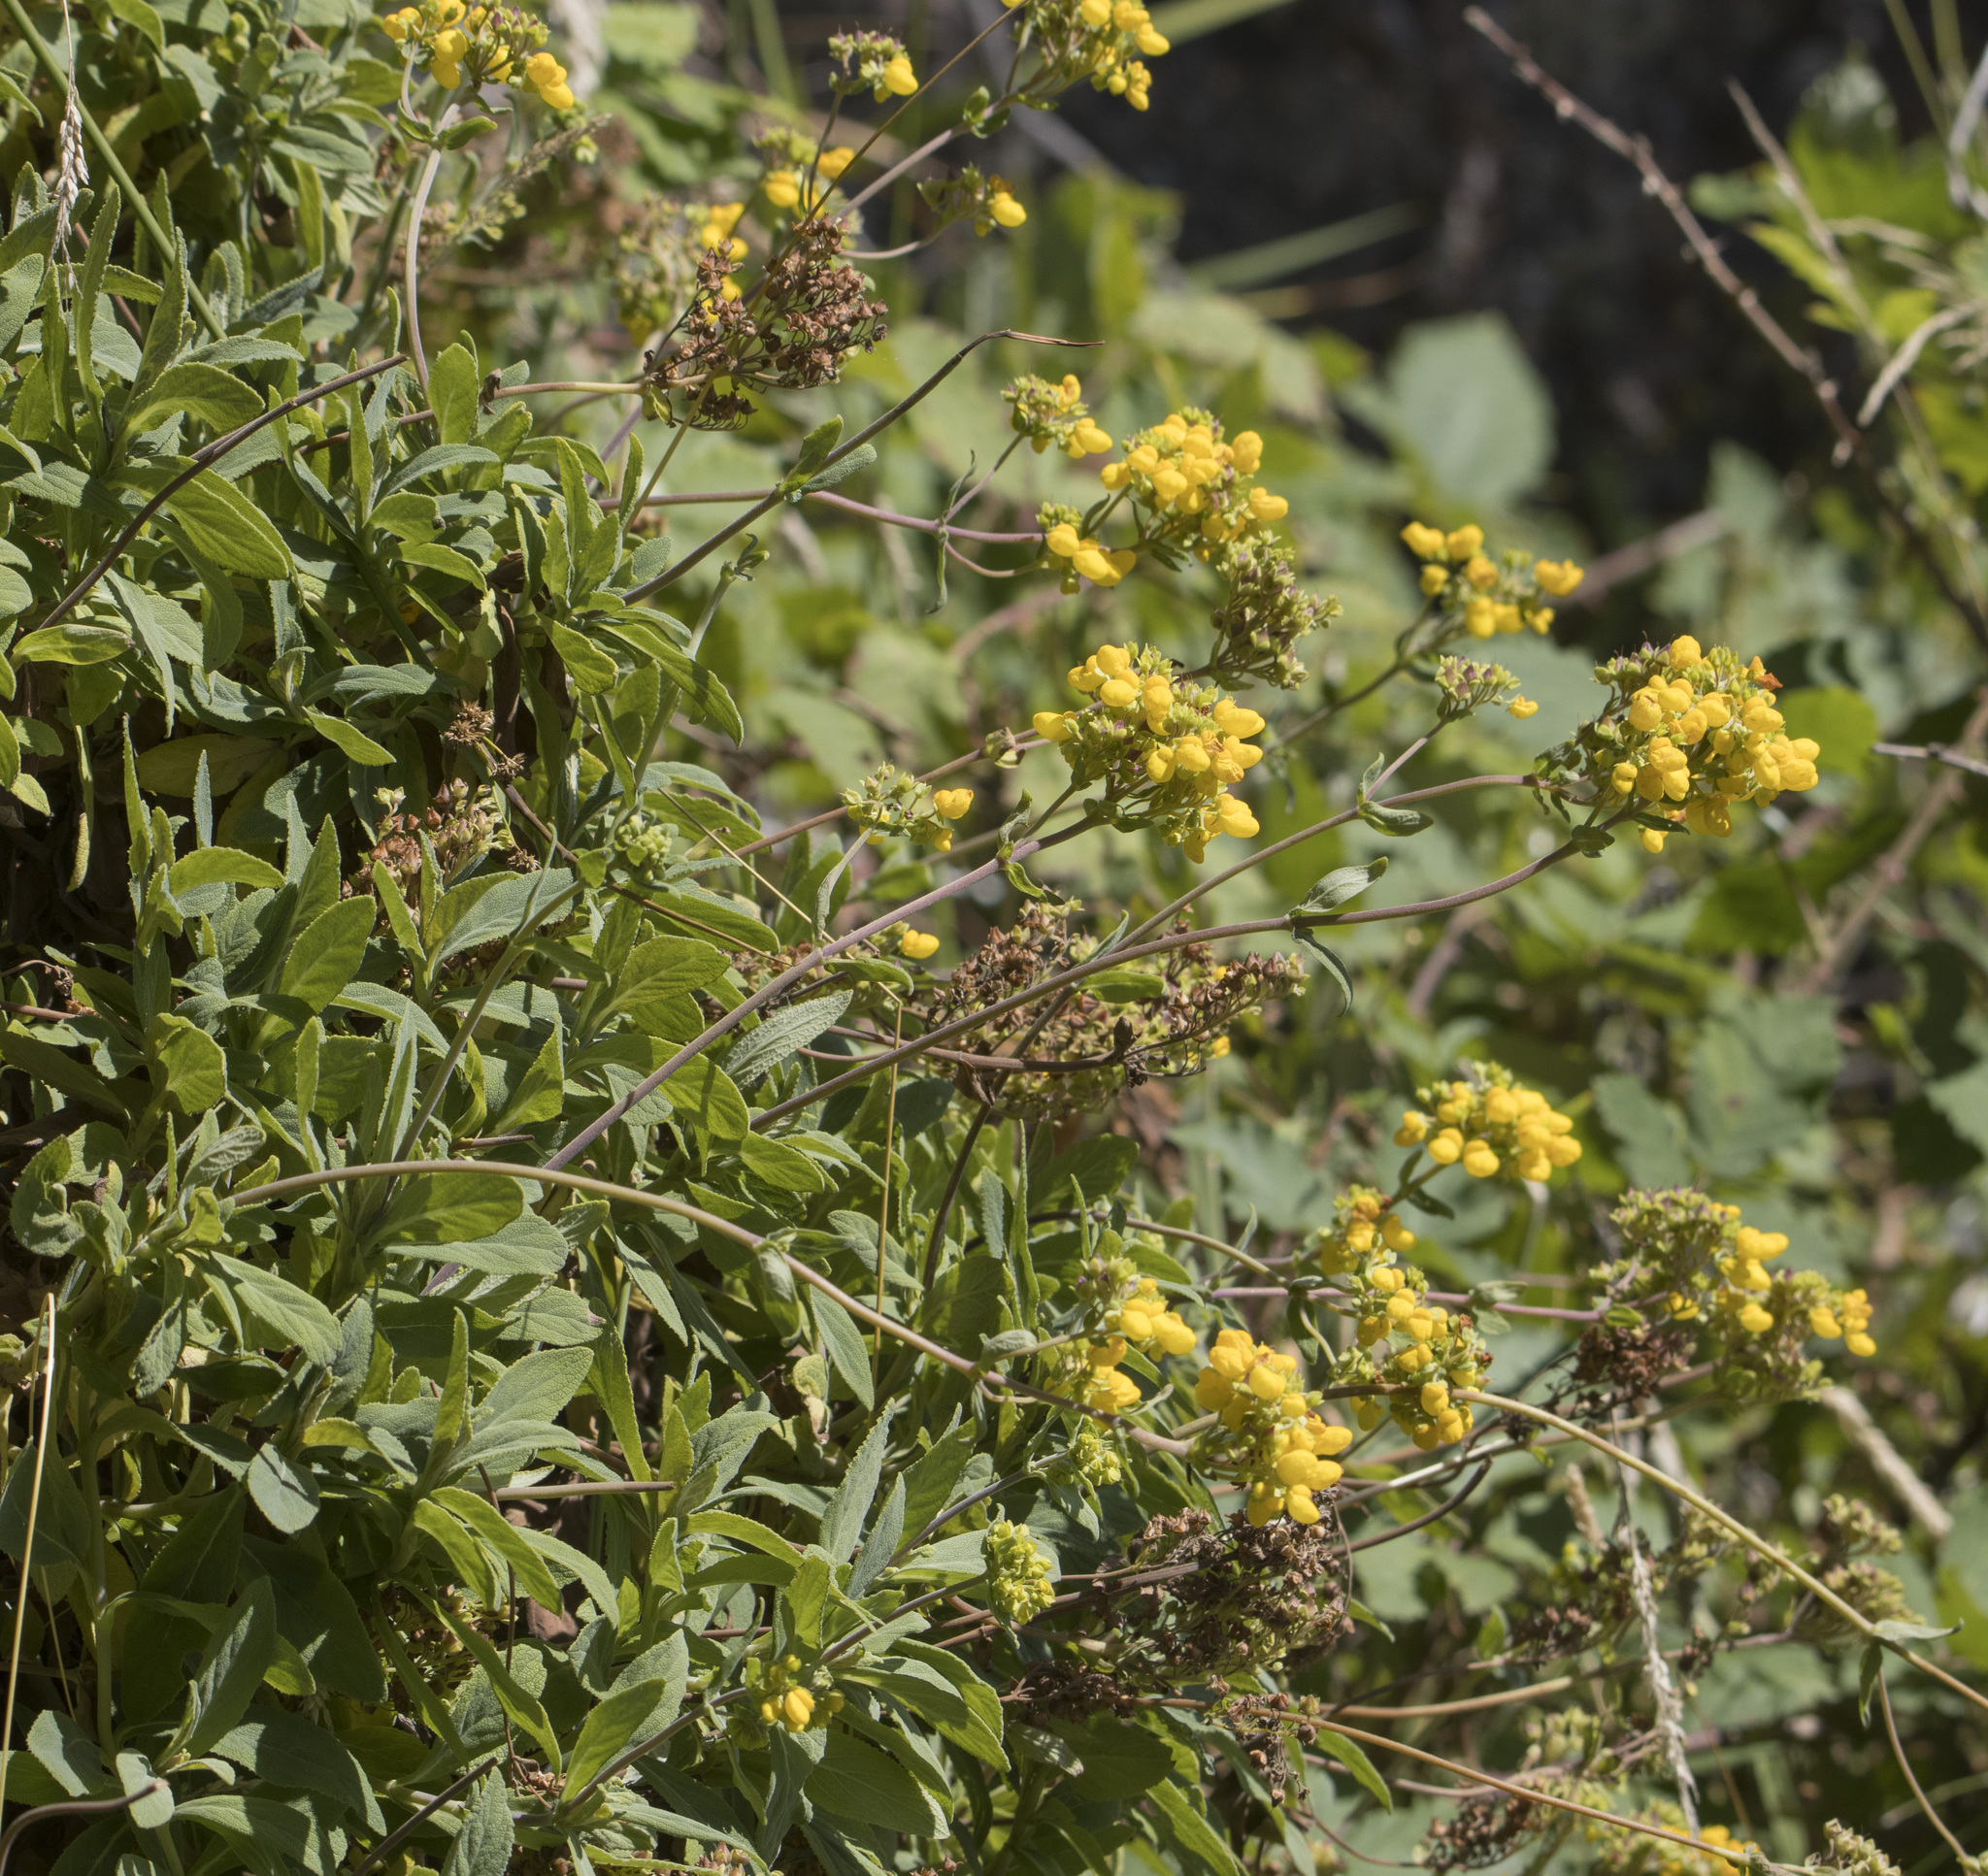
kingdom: Plantae
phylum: Tracheophyta
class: Magnoliopsida
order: Lamiales
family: Calceolariaceae
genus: Calceolaria
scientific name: Calceolaria integrifolia
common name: Bush slipperwort
